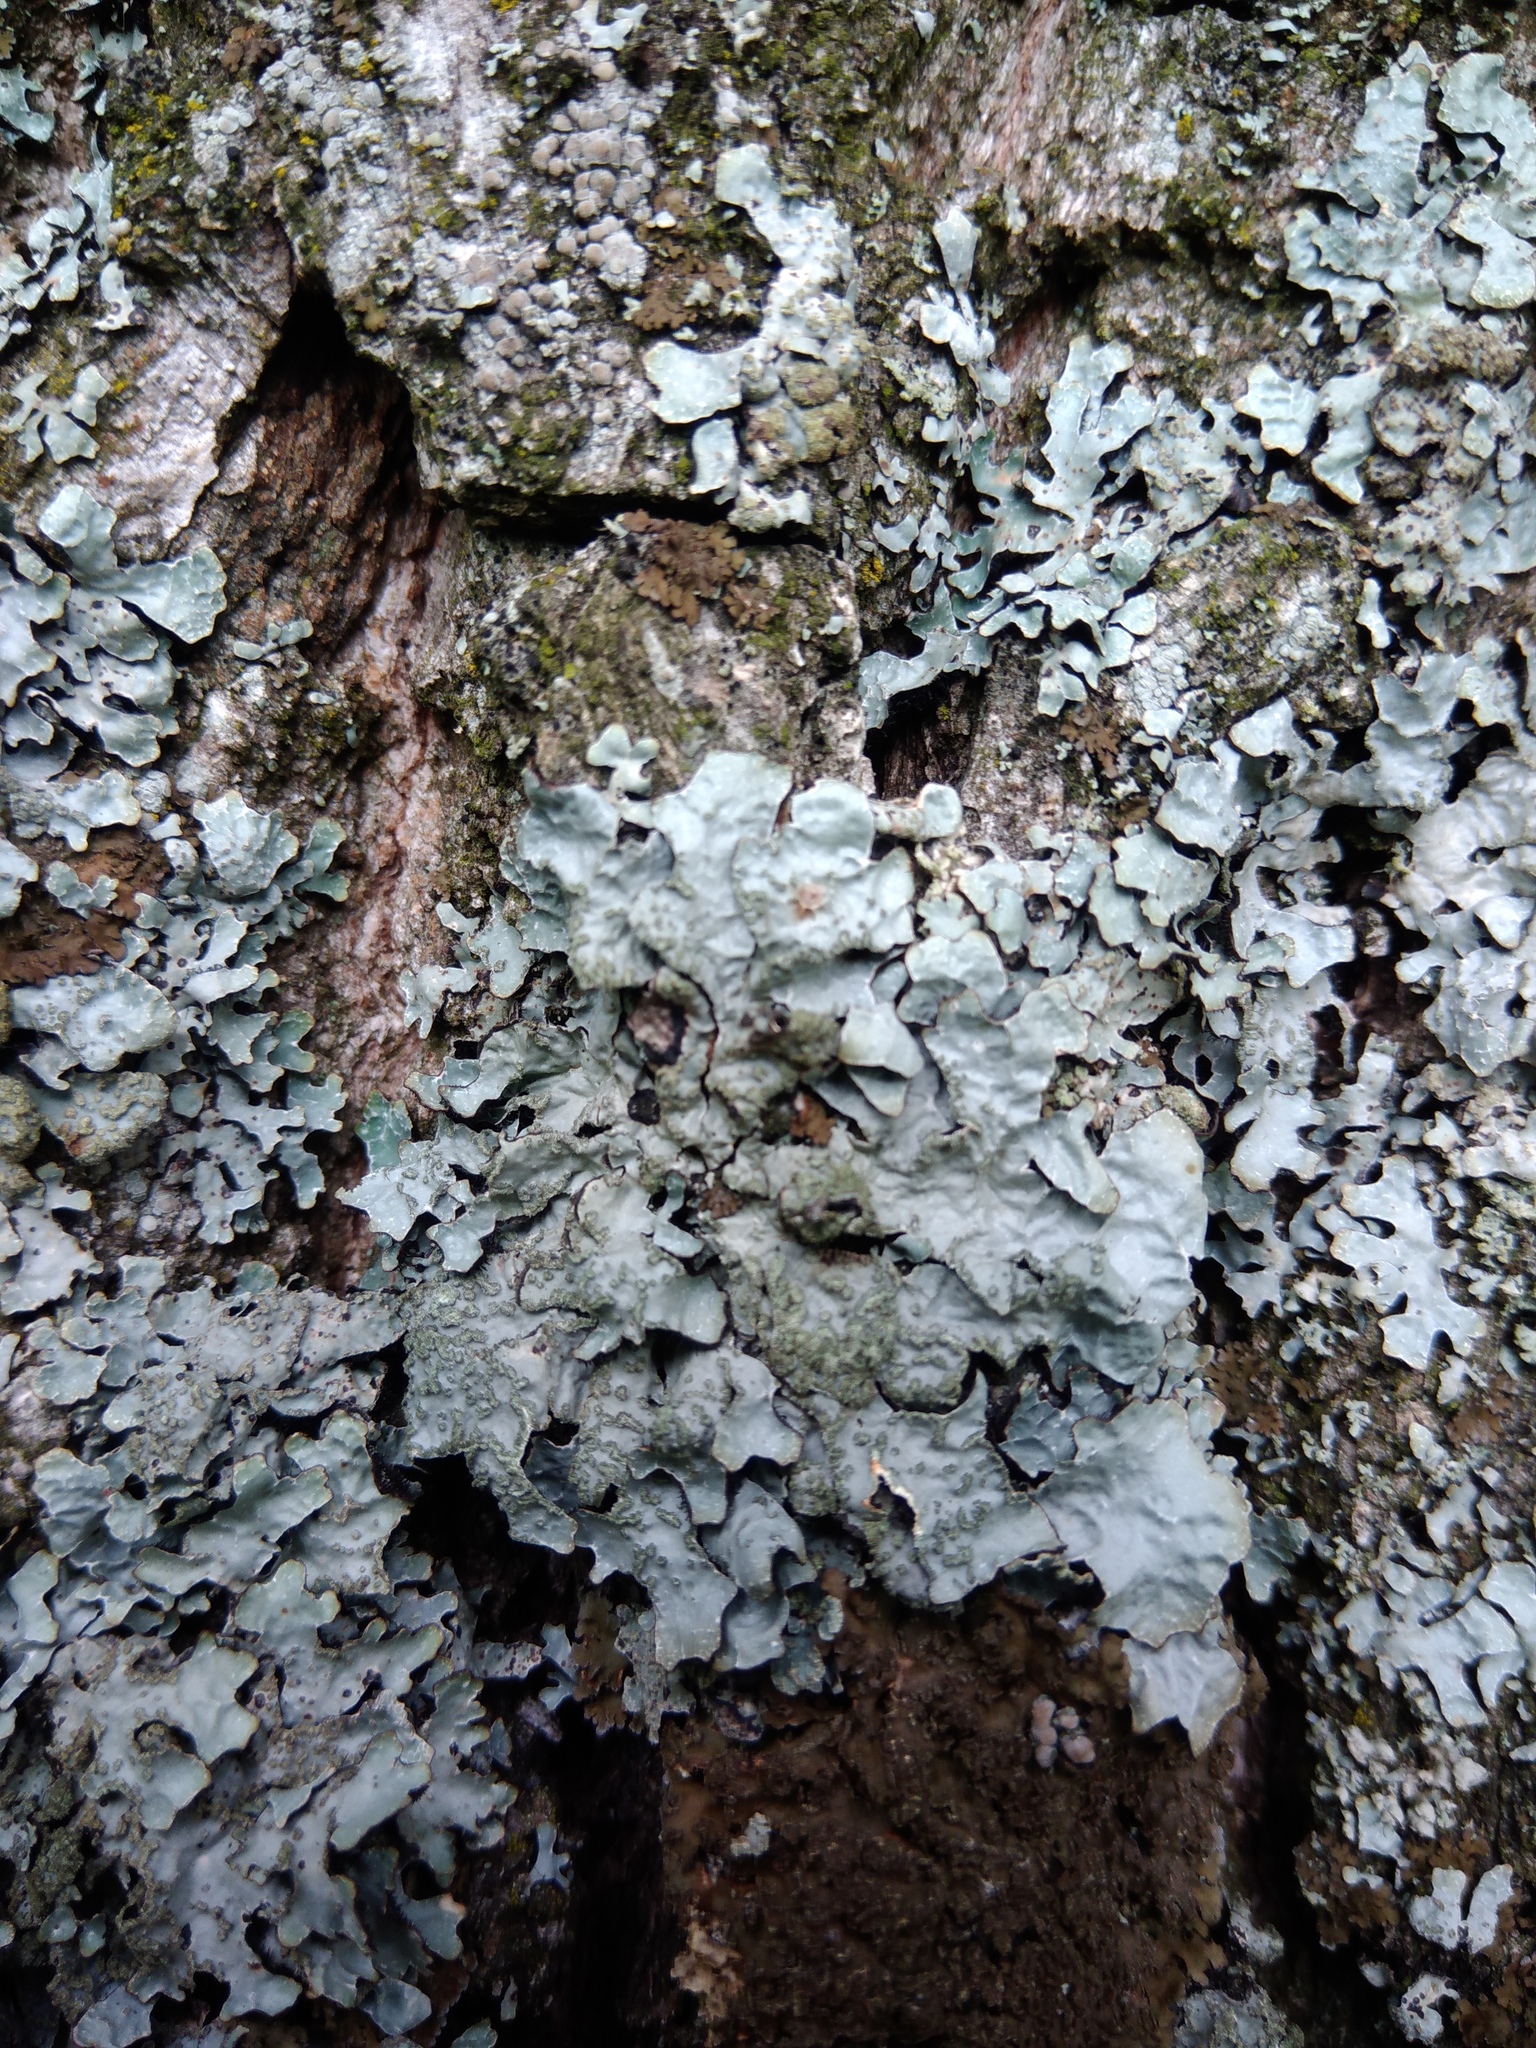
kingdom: Fungi
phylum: Ascomycota
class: Lecanoromycetes
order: Lecanorales
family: Parmeliaceae
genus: Parmelia
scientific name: Parmelia sulcata
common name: Netted shield lichen
